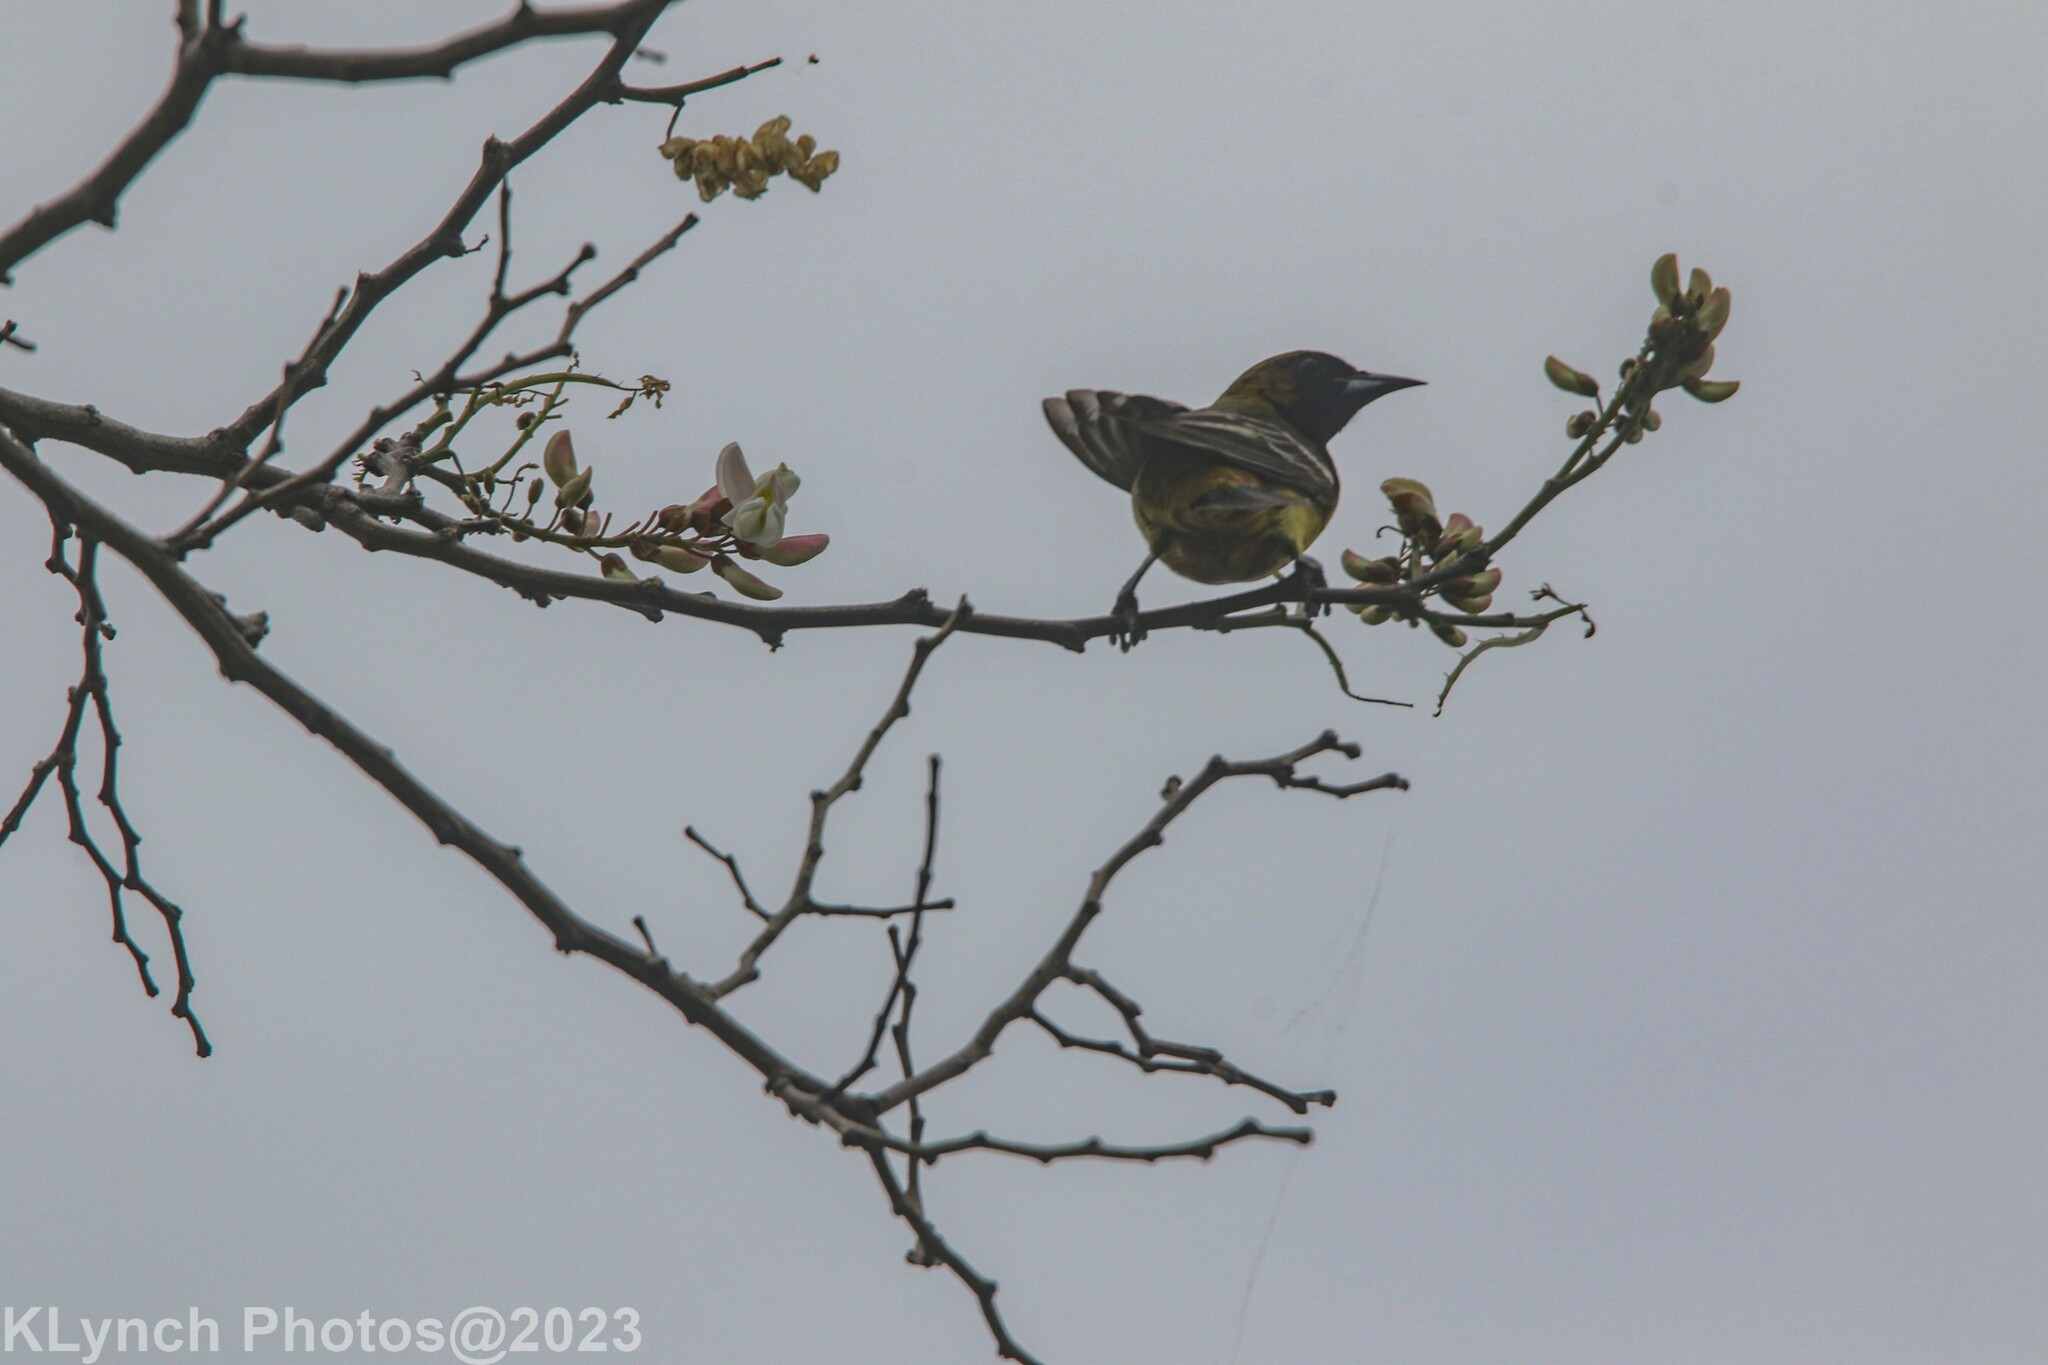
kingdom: Animalia
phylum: Chordata
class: Aves
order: Passeriformes
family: Icteridae
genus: Icterus
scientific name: Icterus galbula
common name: Baltimore oriole
